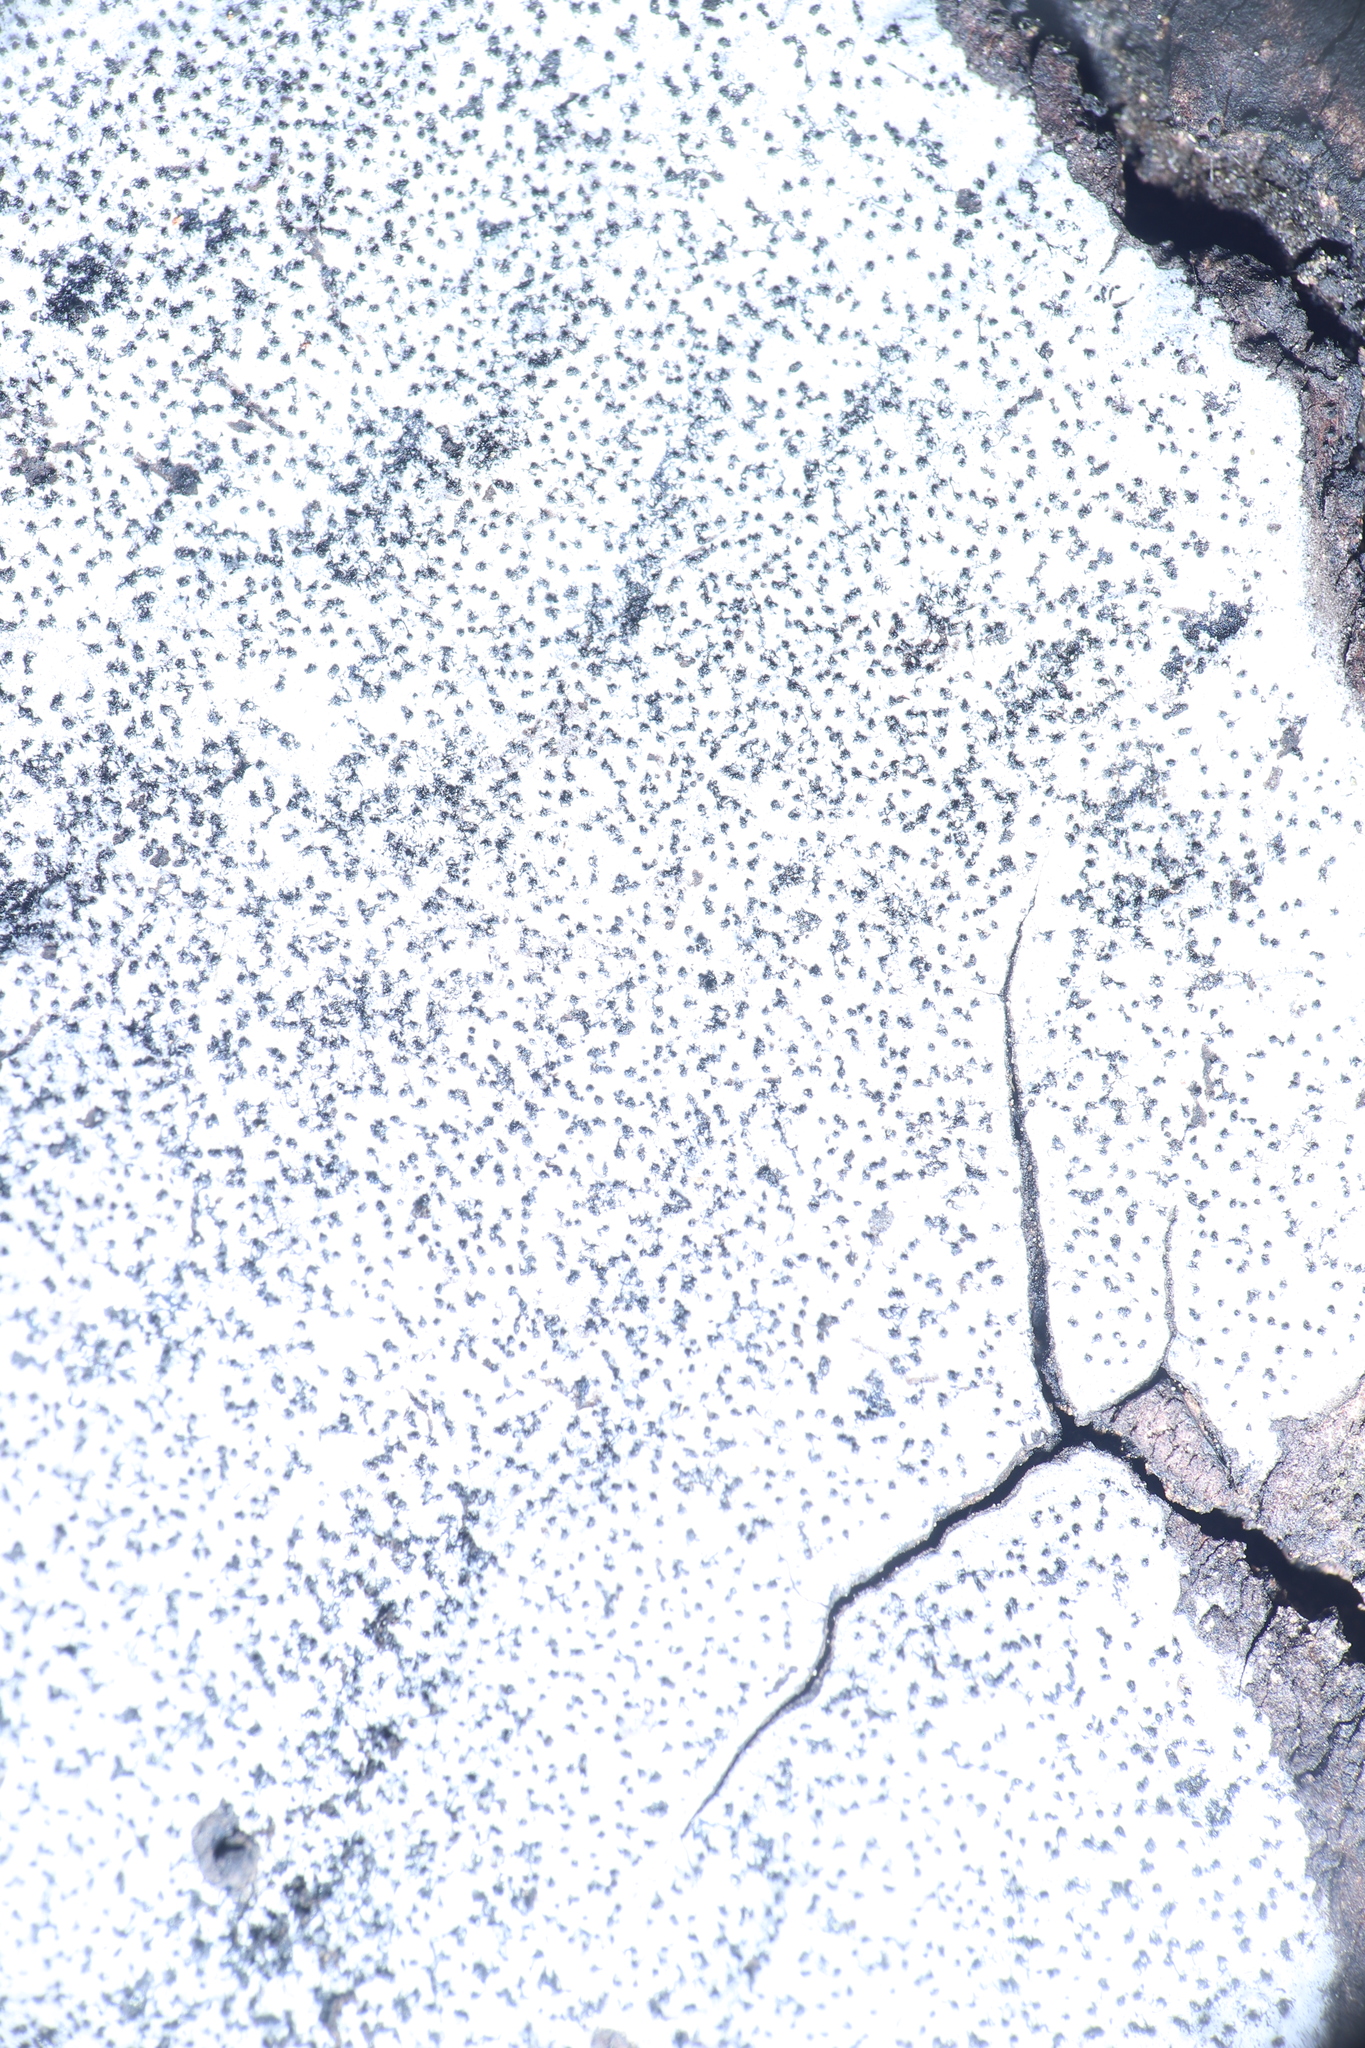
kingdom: Fungi
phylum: Ascomycota
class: Sordariomycetes
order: Xylariales
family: Graphostromataceae
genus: Biscogniauxia
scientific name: Biscogniauxia atropunctata
